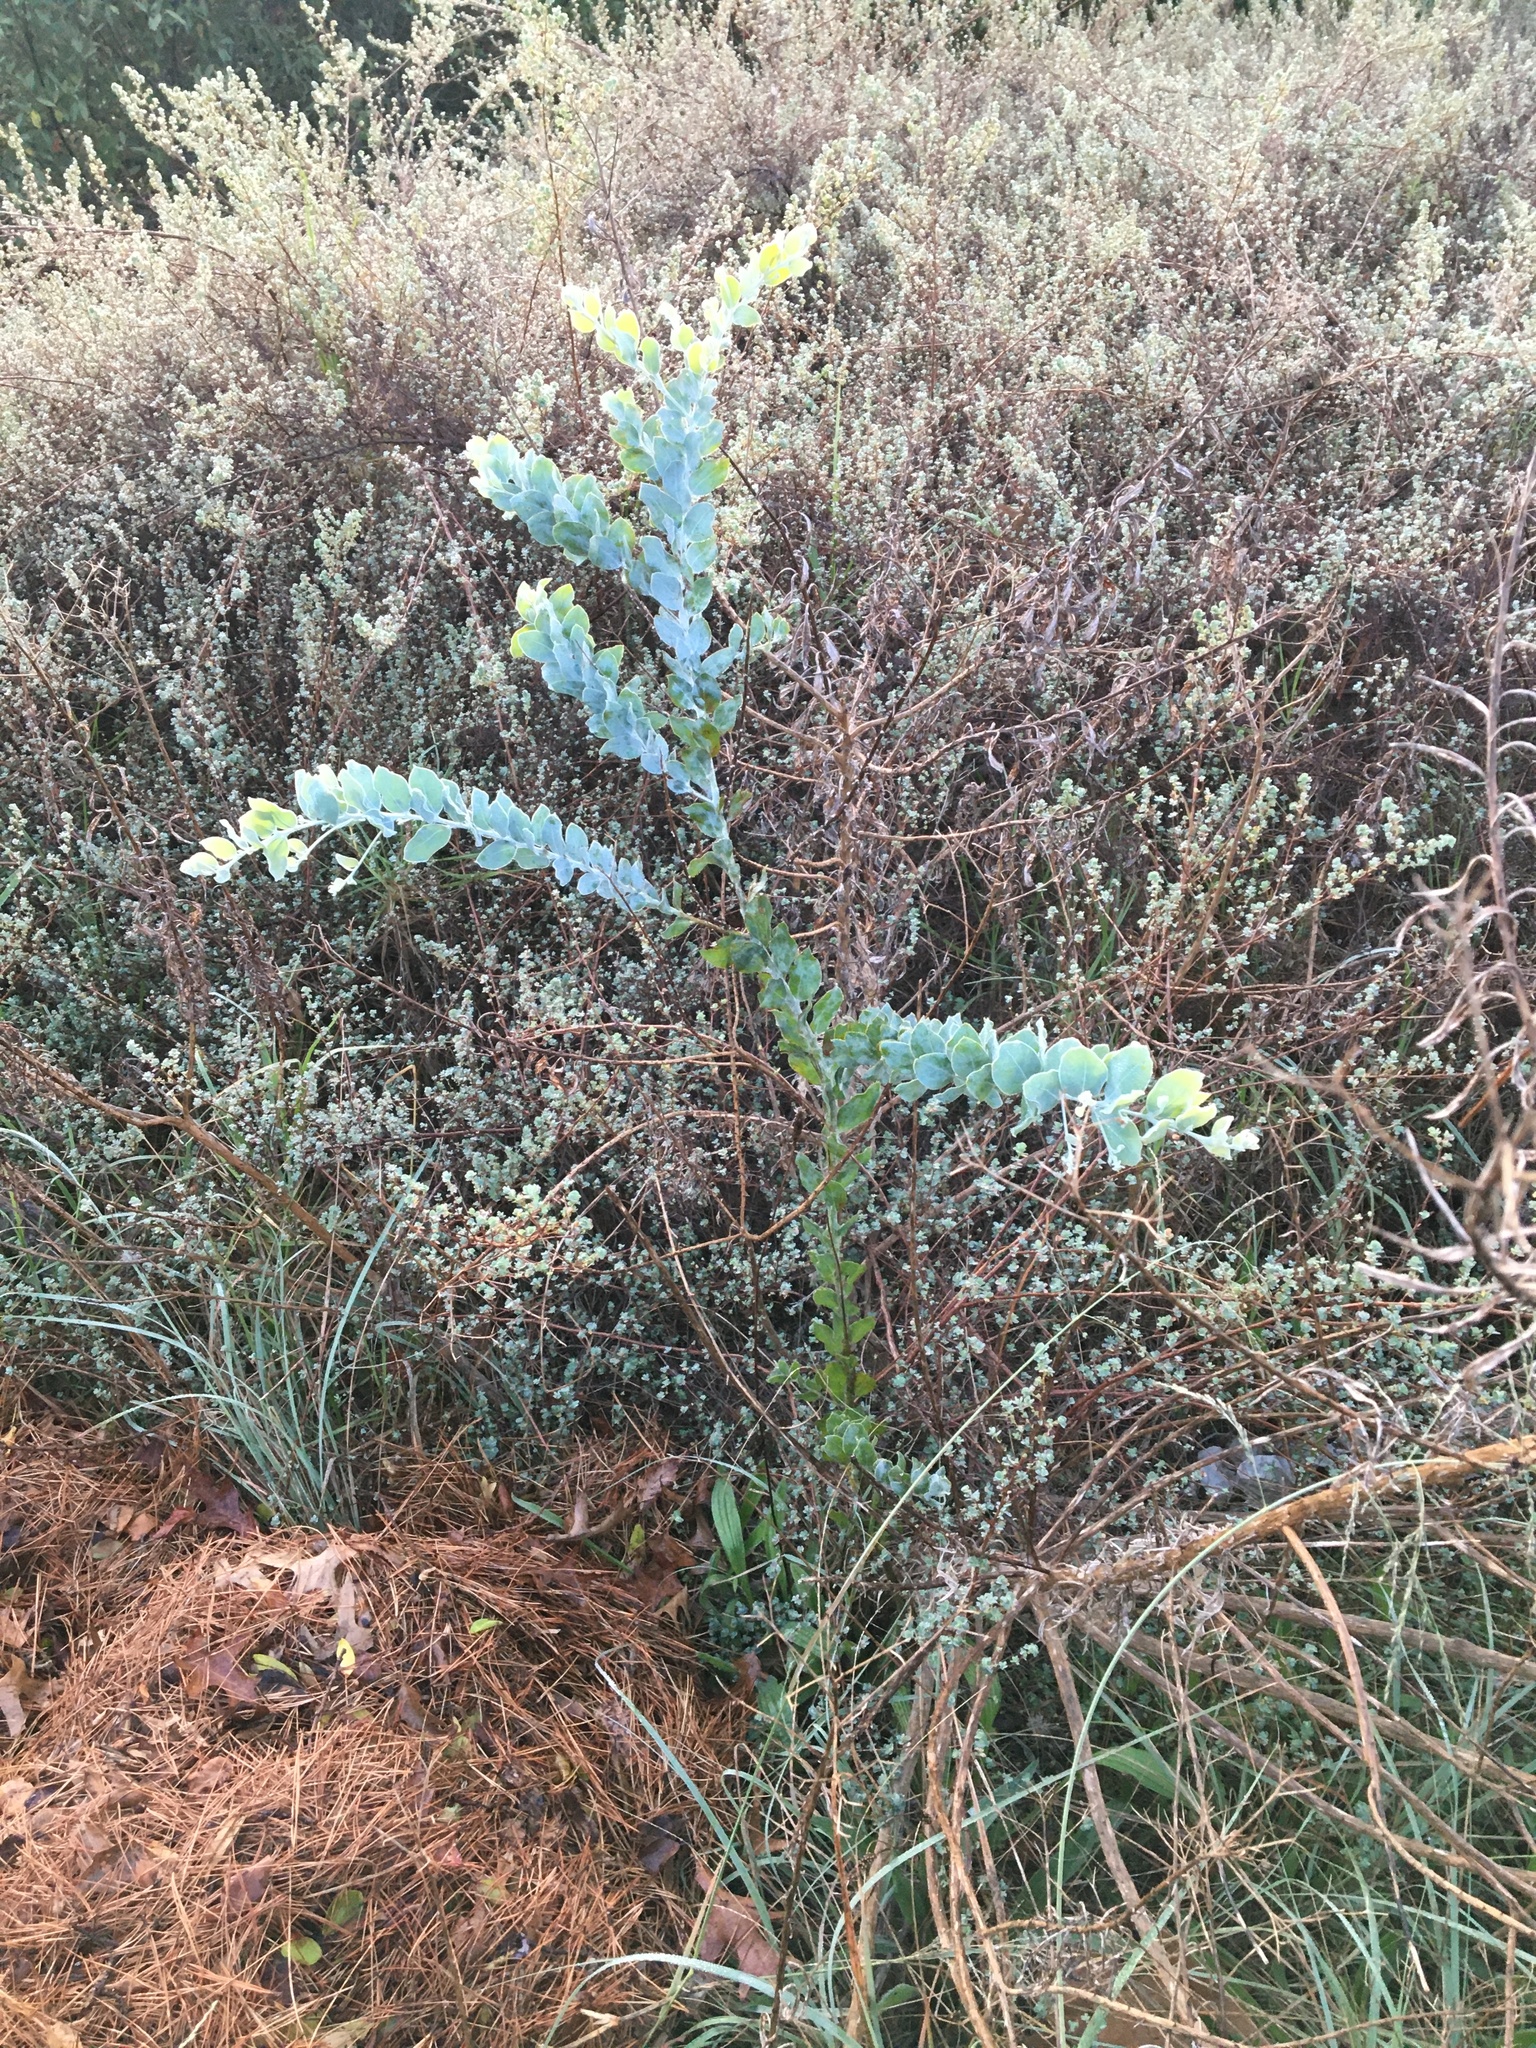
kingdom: Plantae
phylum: Tracheophyta
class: Magnoliopsida
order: Fabales
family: Fabaceae
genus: Acacia
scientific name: Acacia podalyriifolia
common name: Pearl wattle
